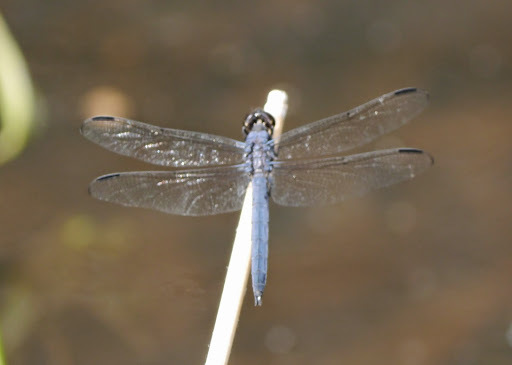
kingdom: Animalia
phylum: Arthropoda
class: Insecta
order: Odonata
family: Libellulidae
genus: Libellula
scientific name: Libellula incesta
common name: Slaty skimmer
